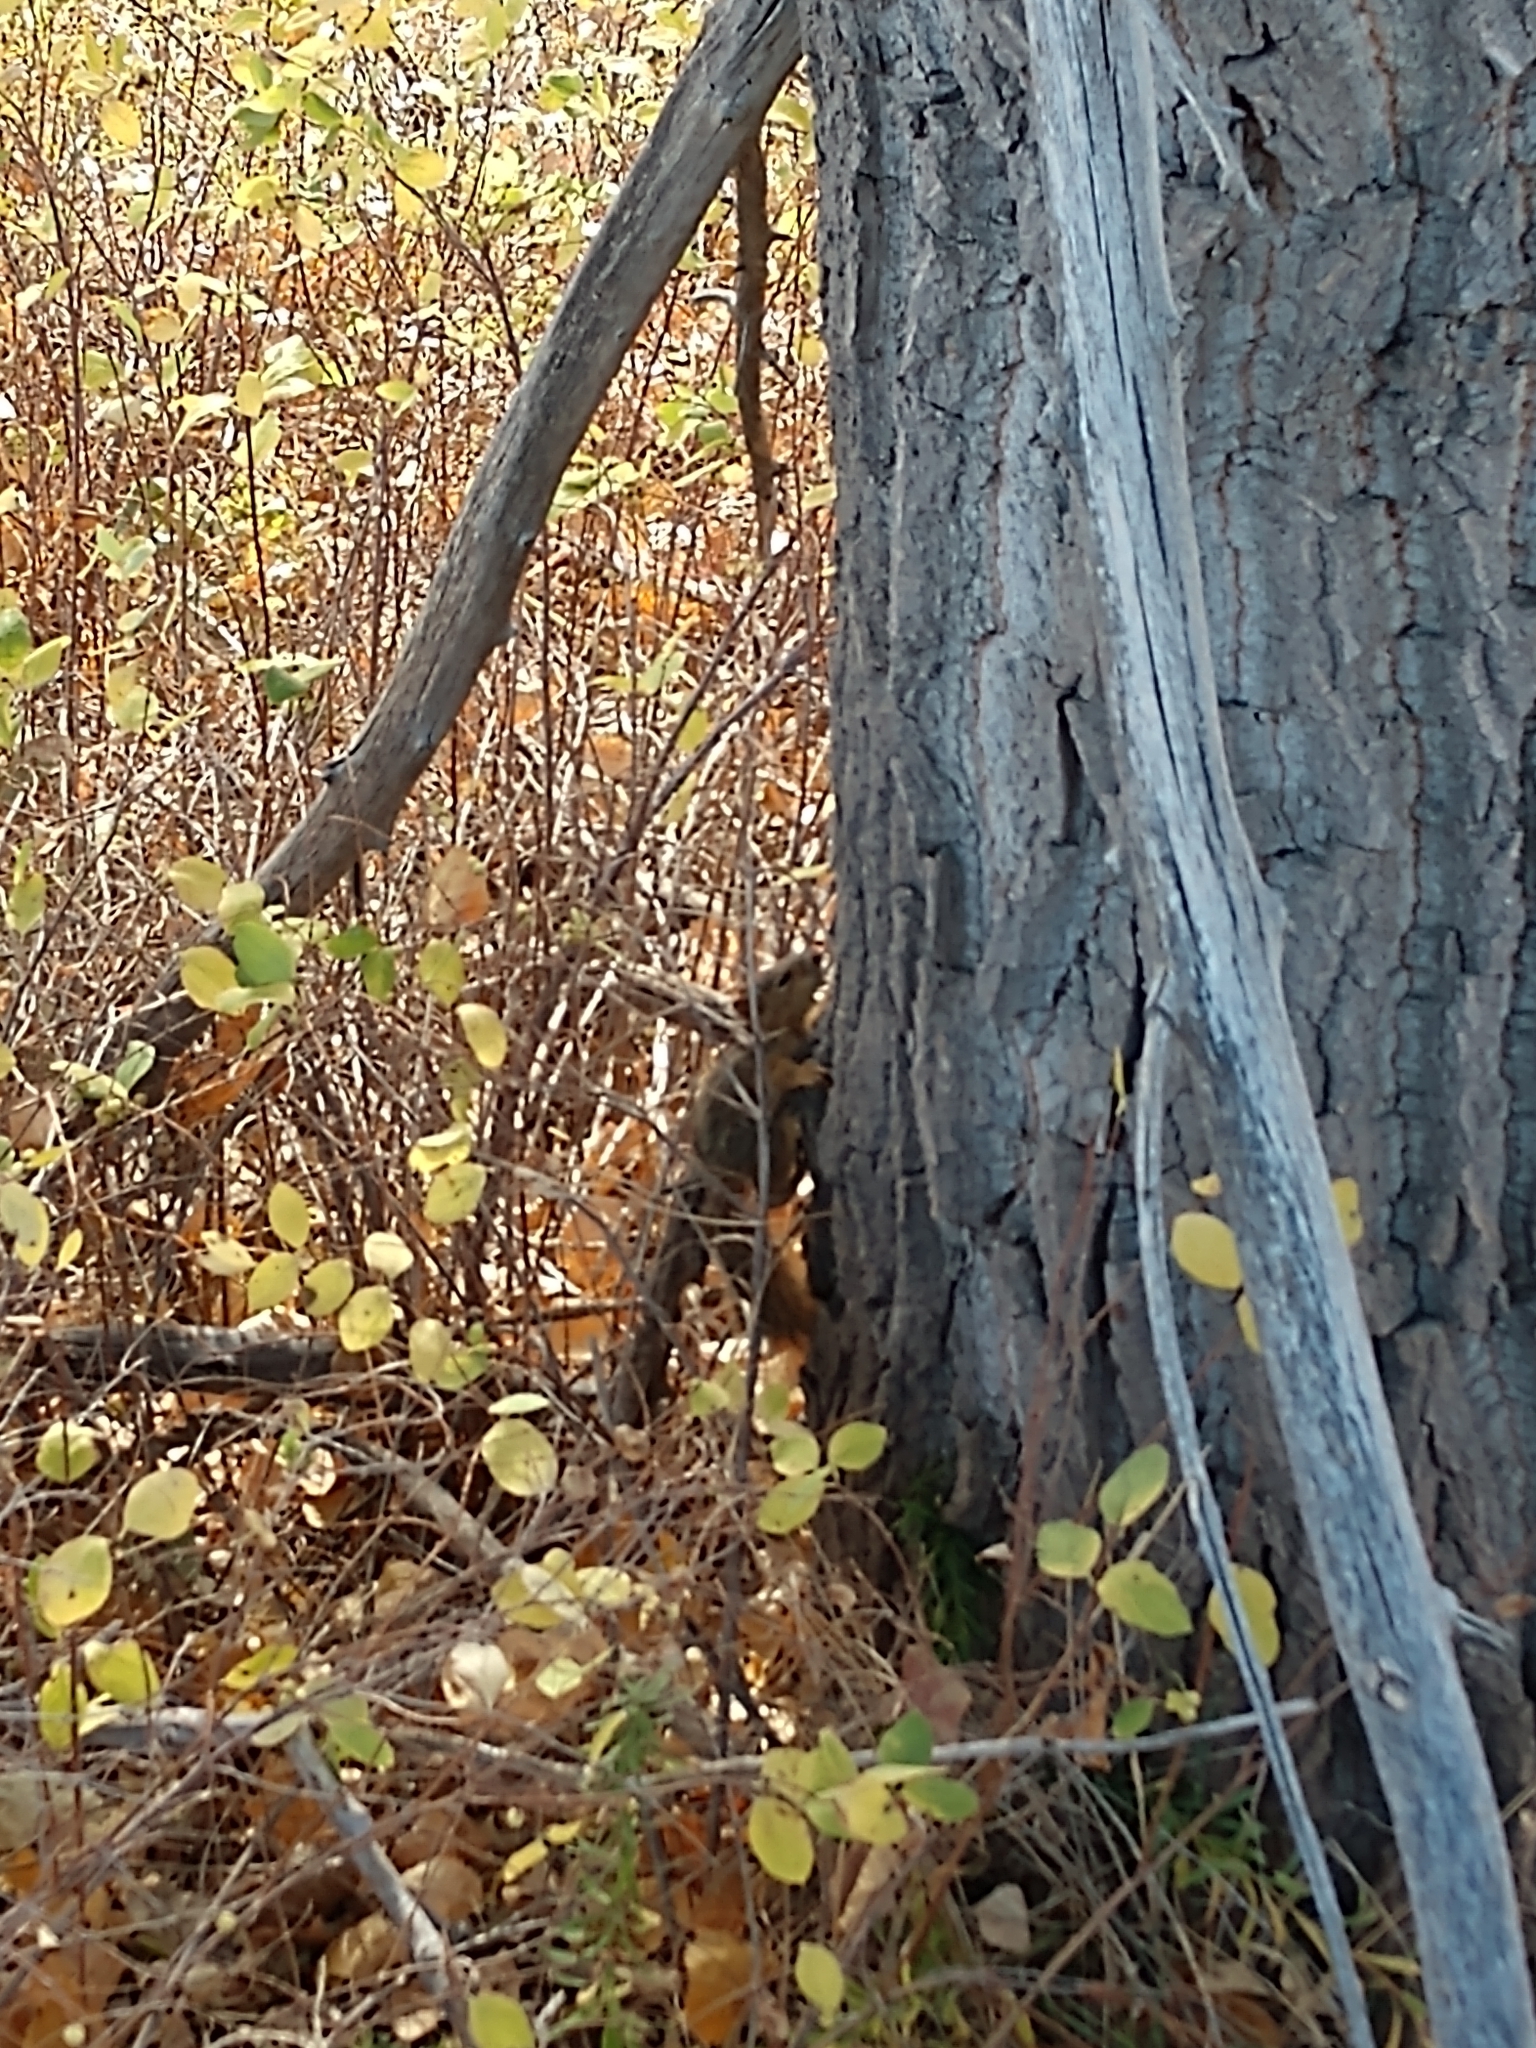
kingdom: Animalia
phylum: Chordata
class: Mammalia
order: Rodentia
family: Sciuridae
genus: Sciurus
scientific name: Sciurus niger
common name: Fox squirrel
